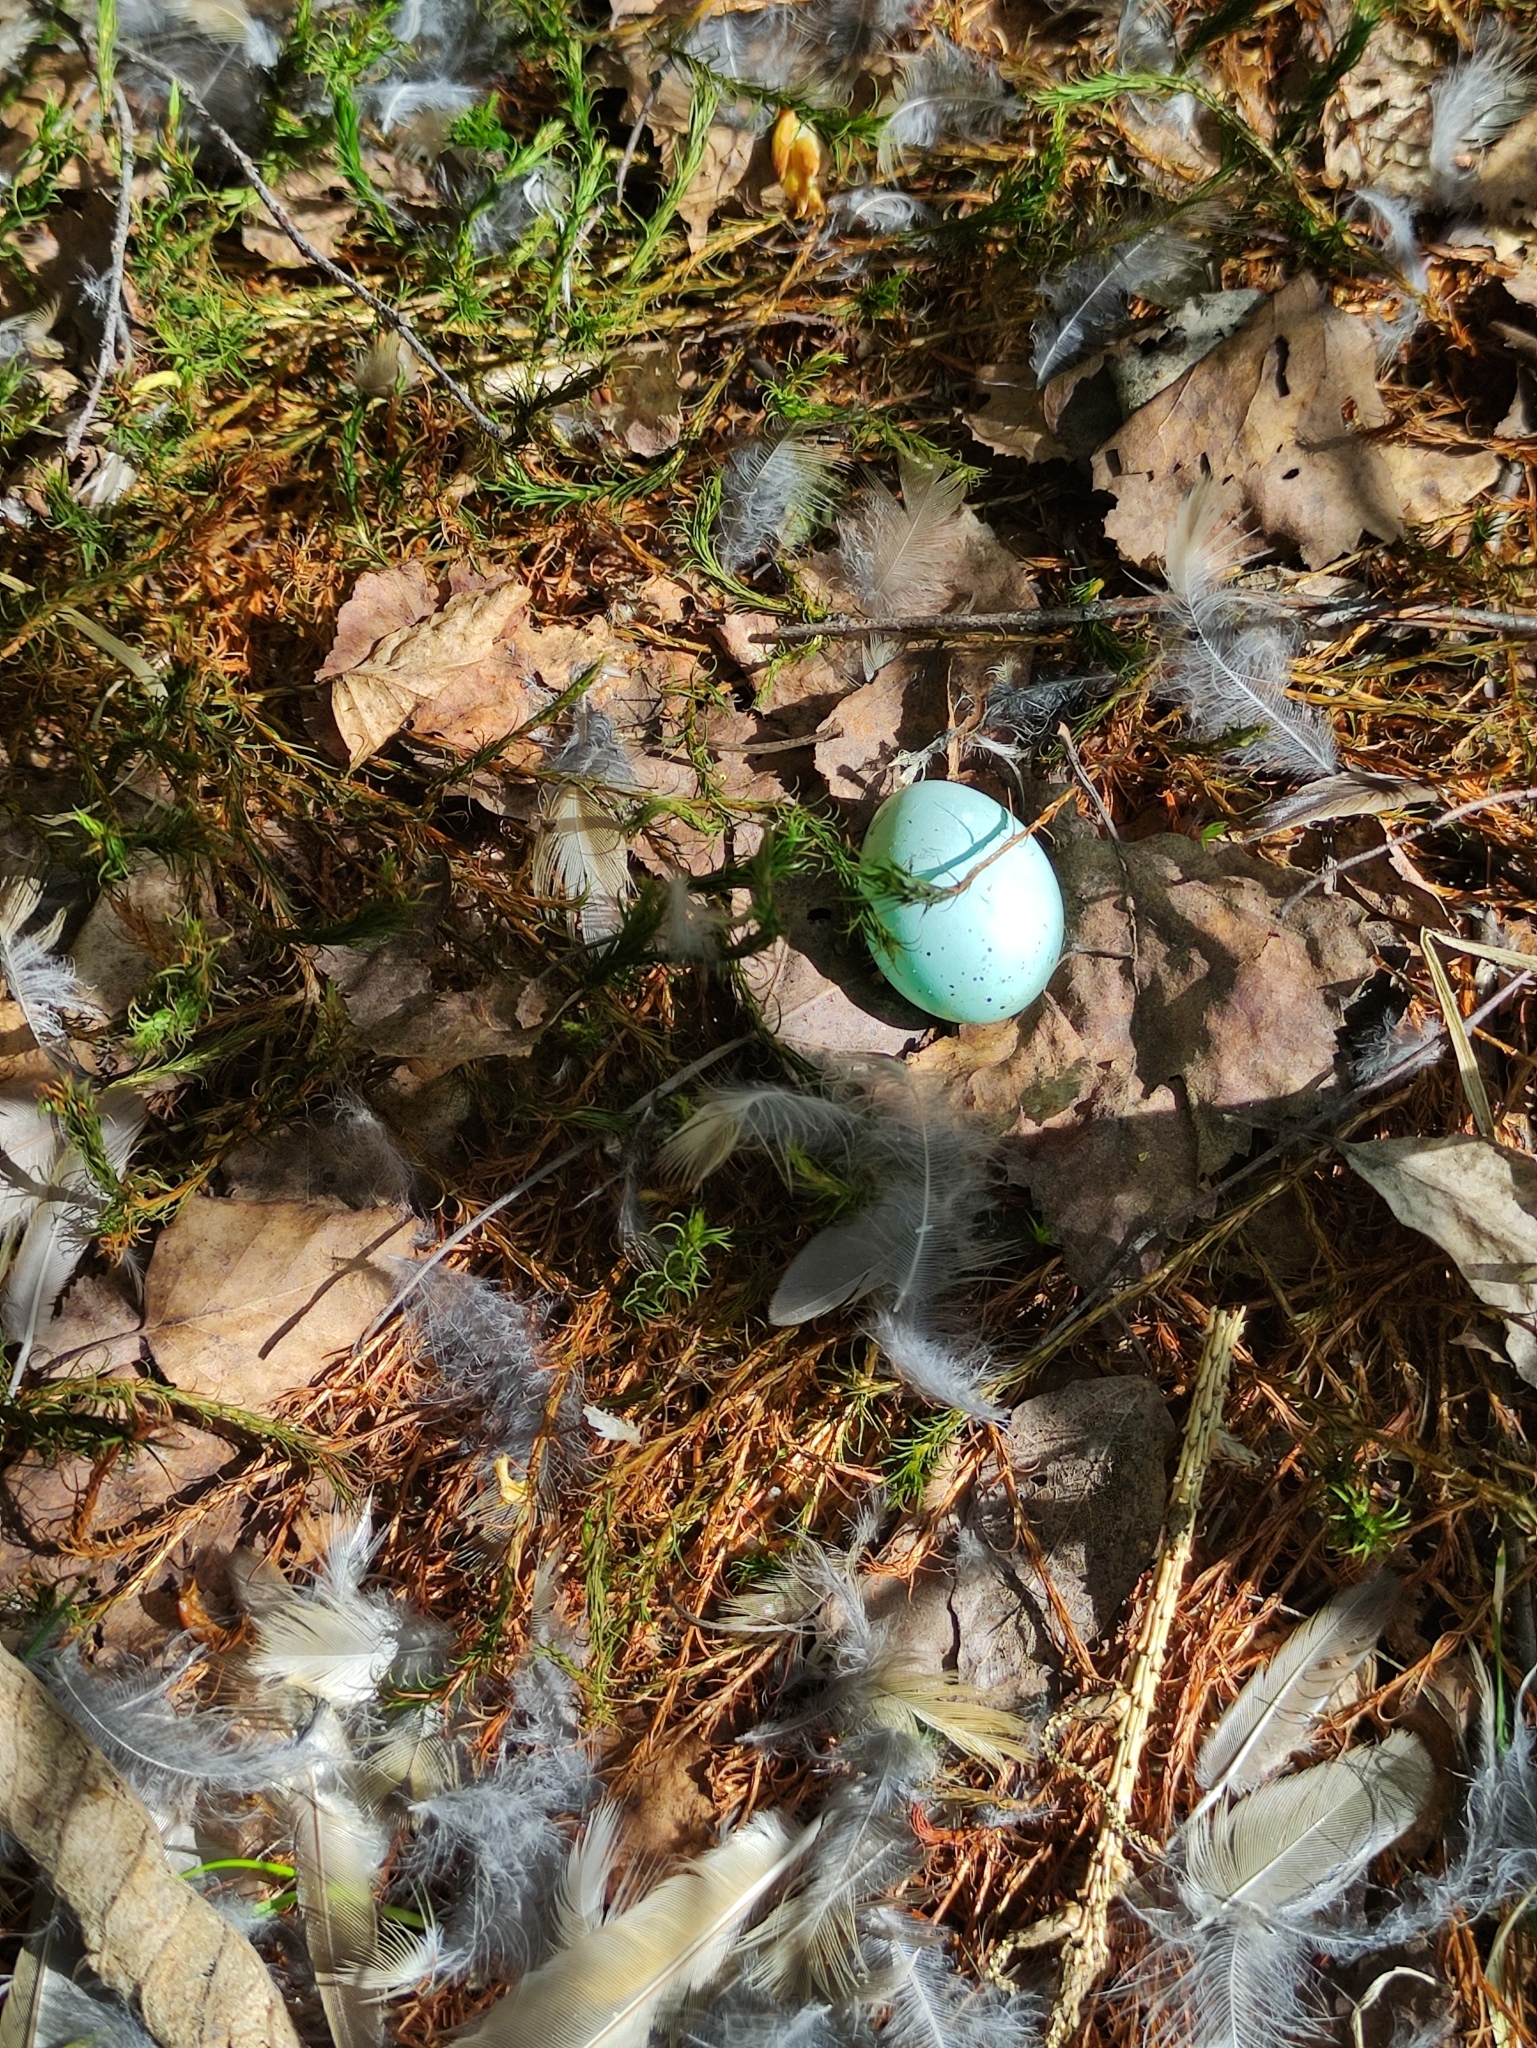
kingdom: Animalia
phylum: Chordata
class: Aves
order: Passeriformes
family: Turdidae
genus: Turdus
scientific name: Turdus philomelos
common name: Song thrush
